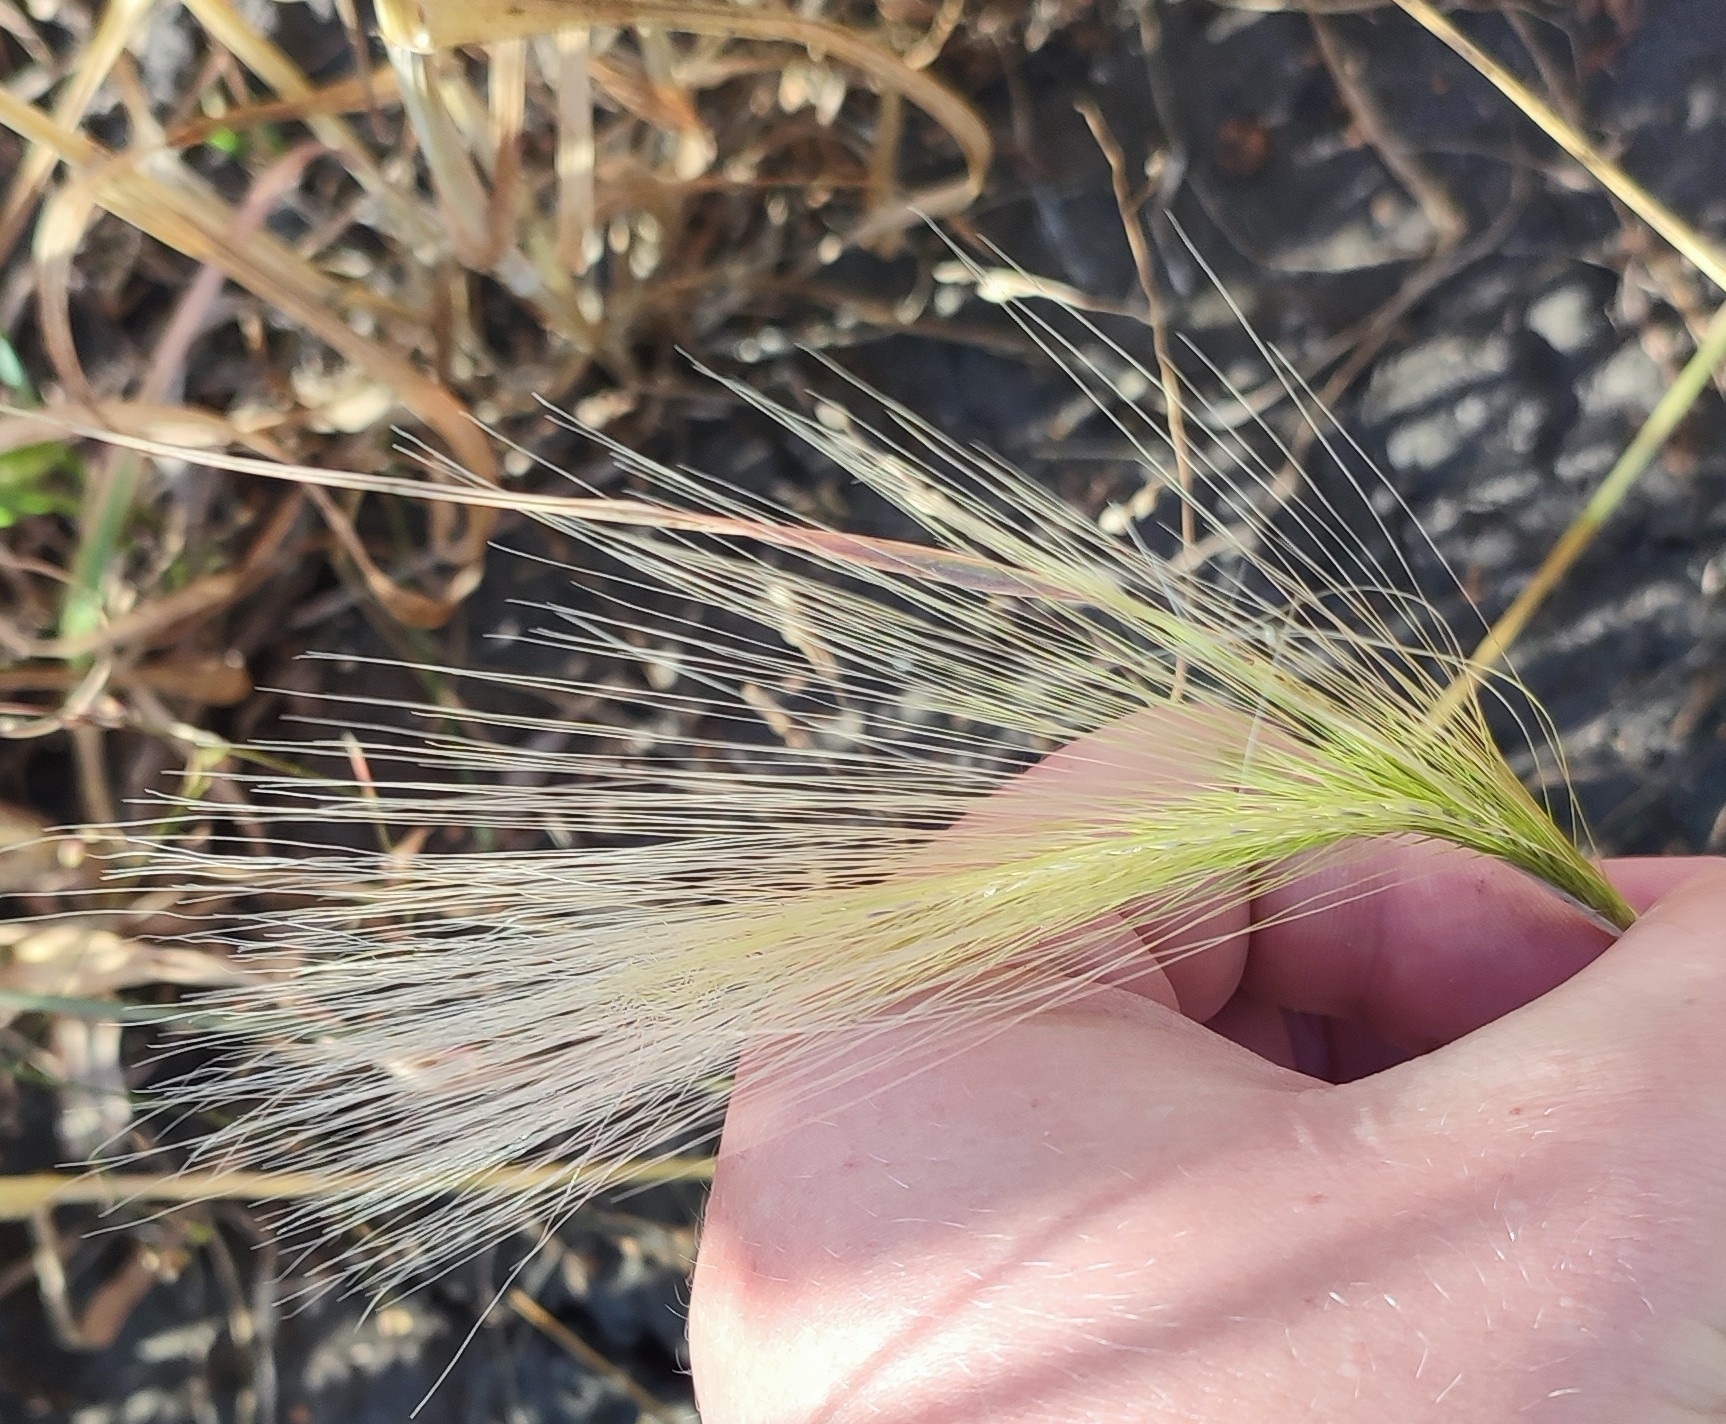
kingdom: Plantae
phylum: Tracheophyta
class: Liliopsida
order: Poales
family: Poaceae
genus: Hordeum
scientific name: Hordeum jubatum
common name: Foxtail barley
